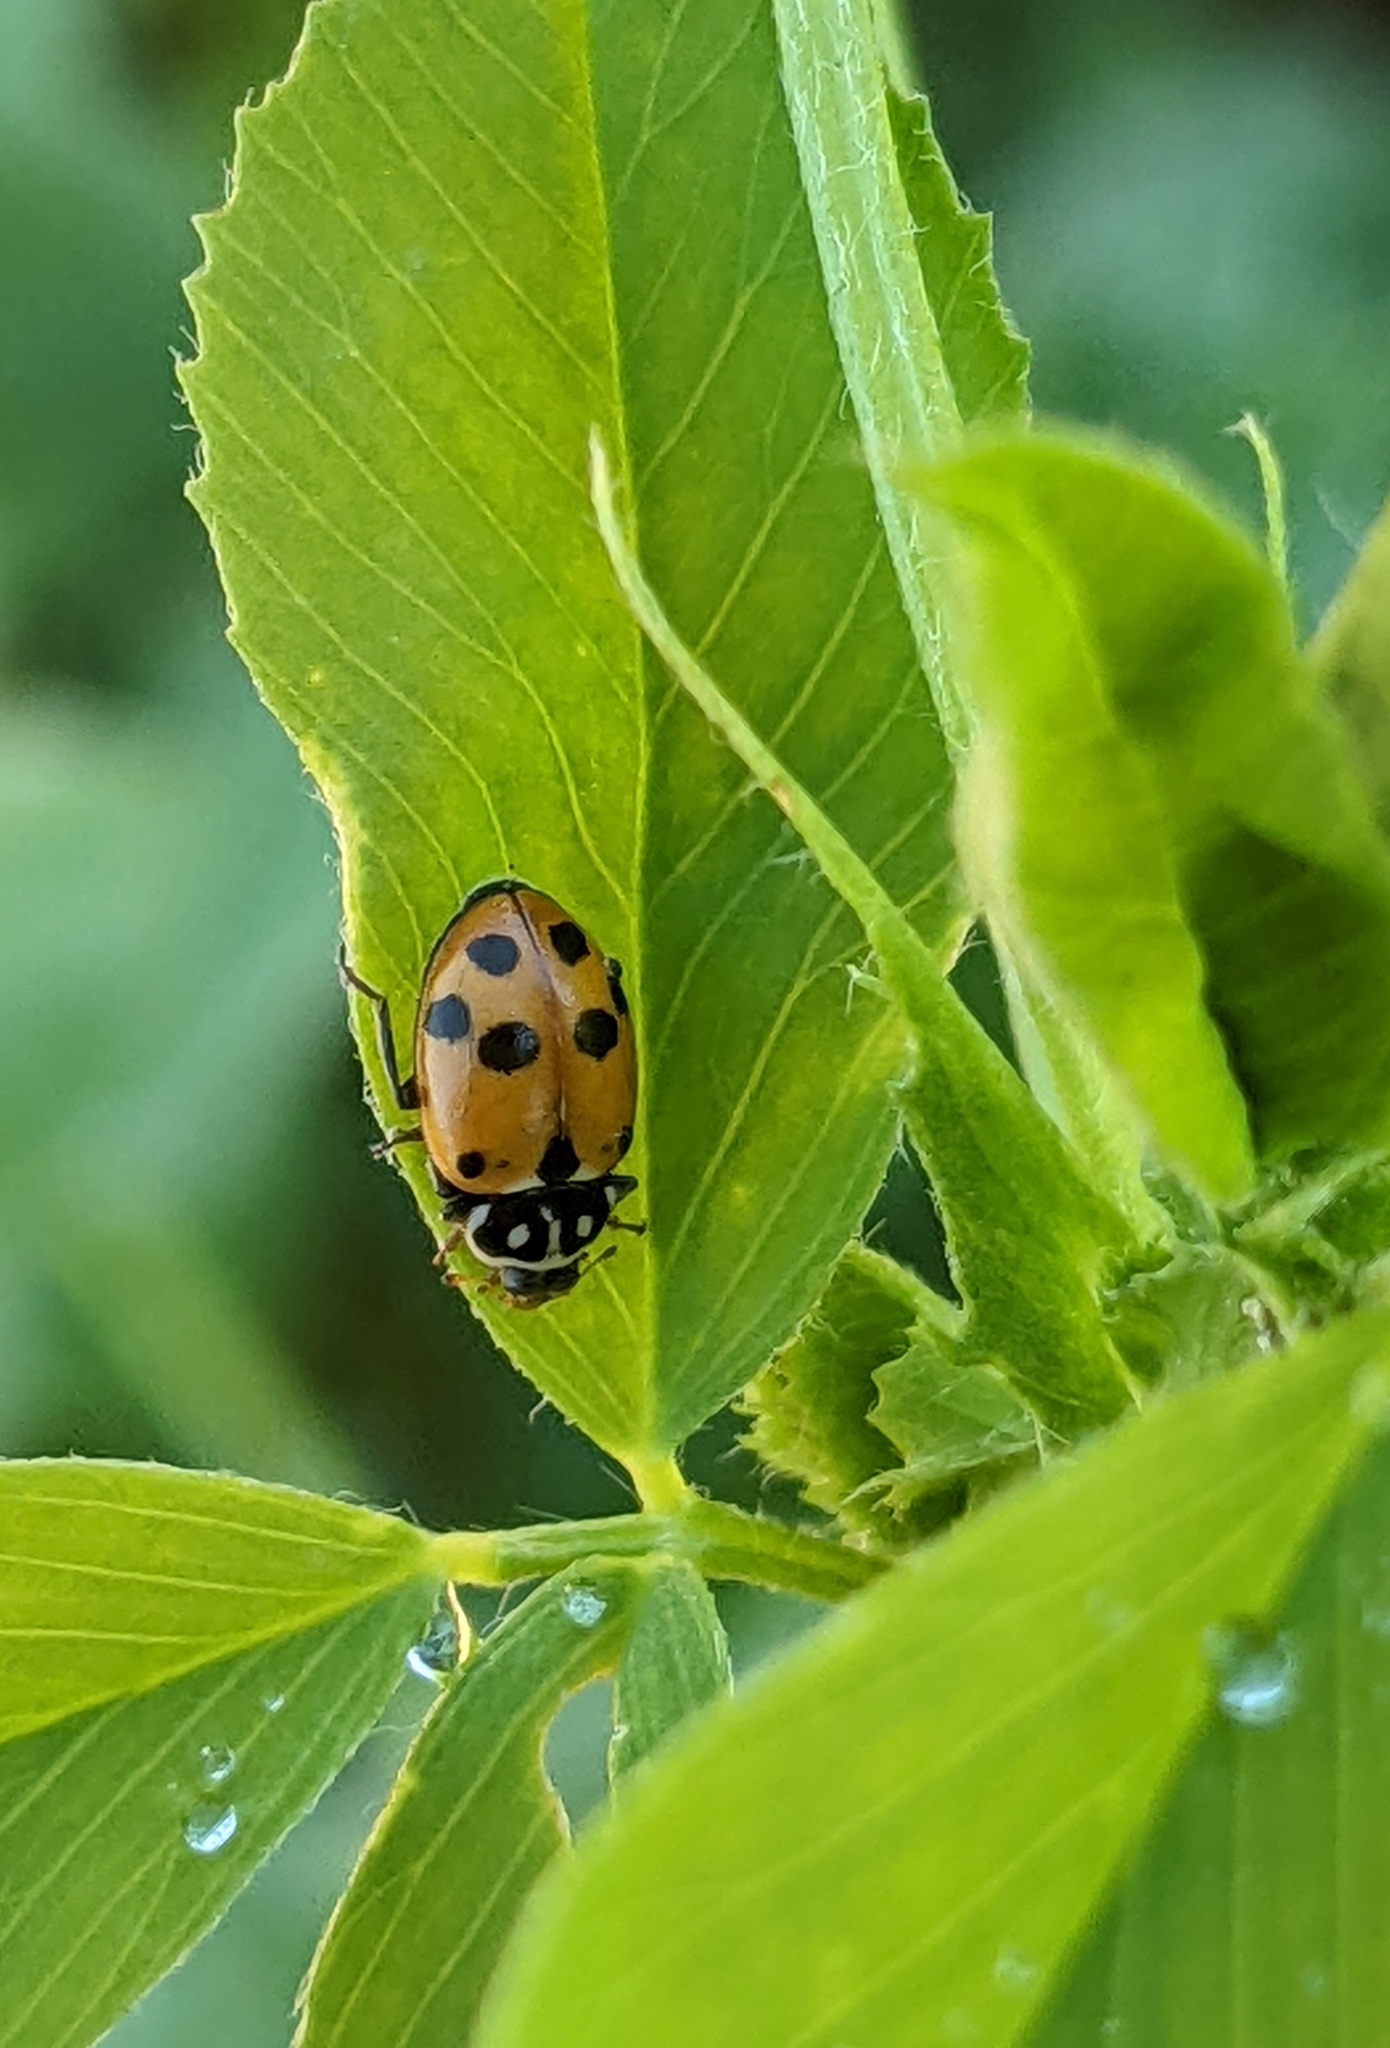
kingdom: Animalia
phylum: Arthropoda
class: Insecta
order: Coleoptera
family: Coccinellidae
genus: Hippodamia
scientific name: Hippodamia variegata
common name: Ladybird beetle
